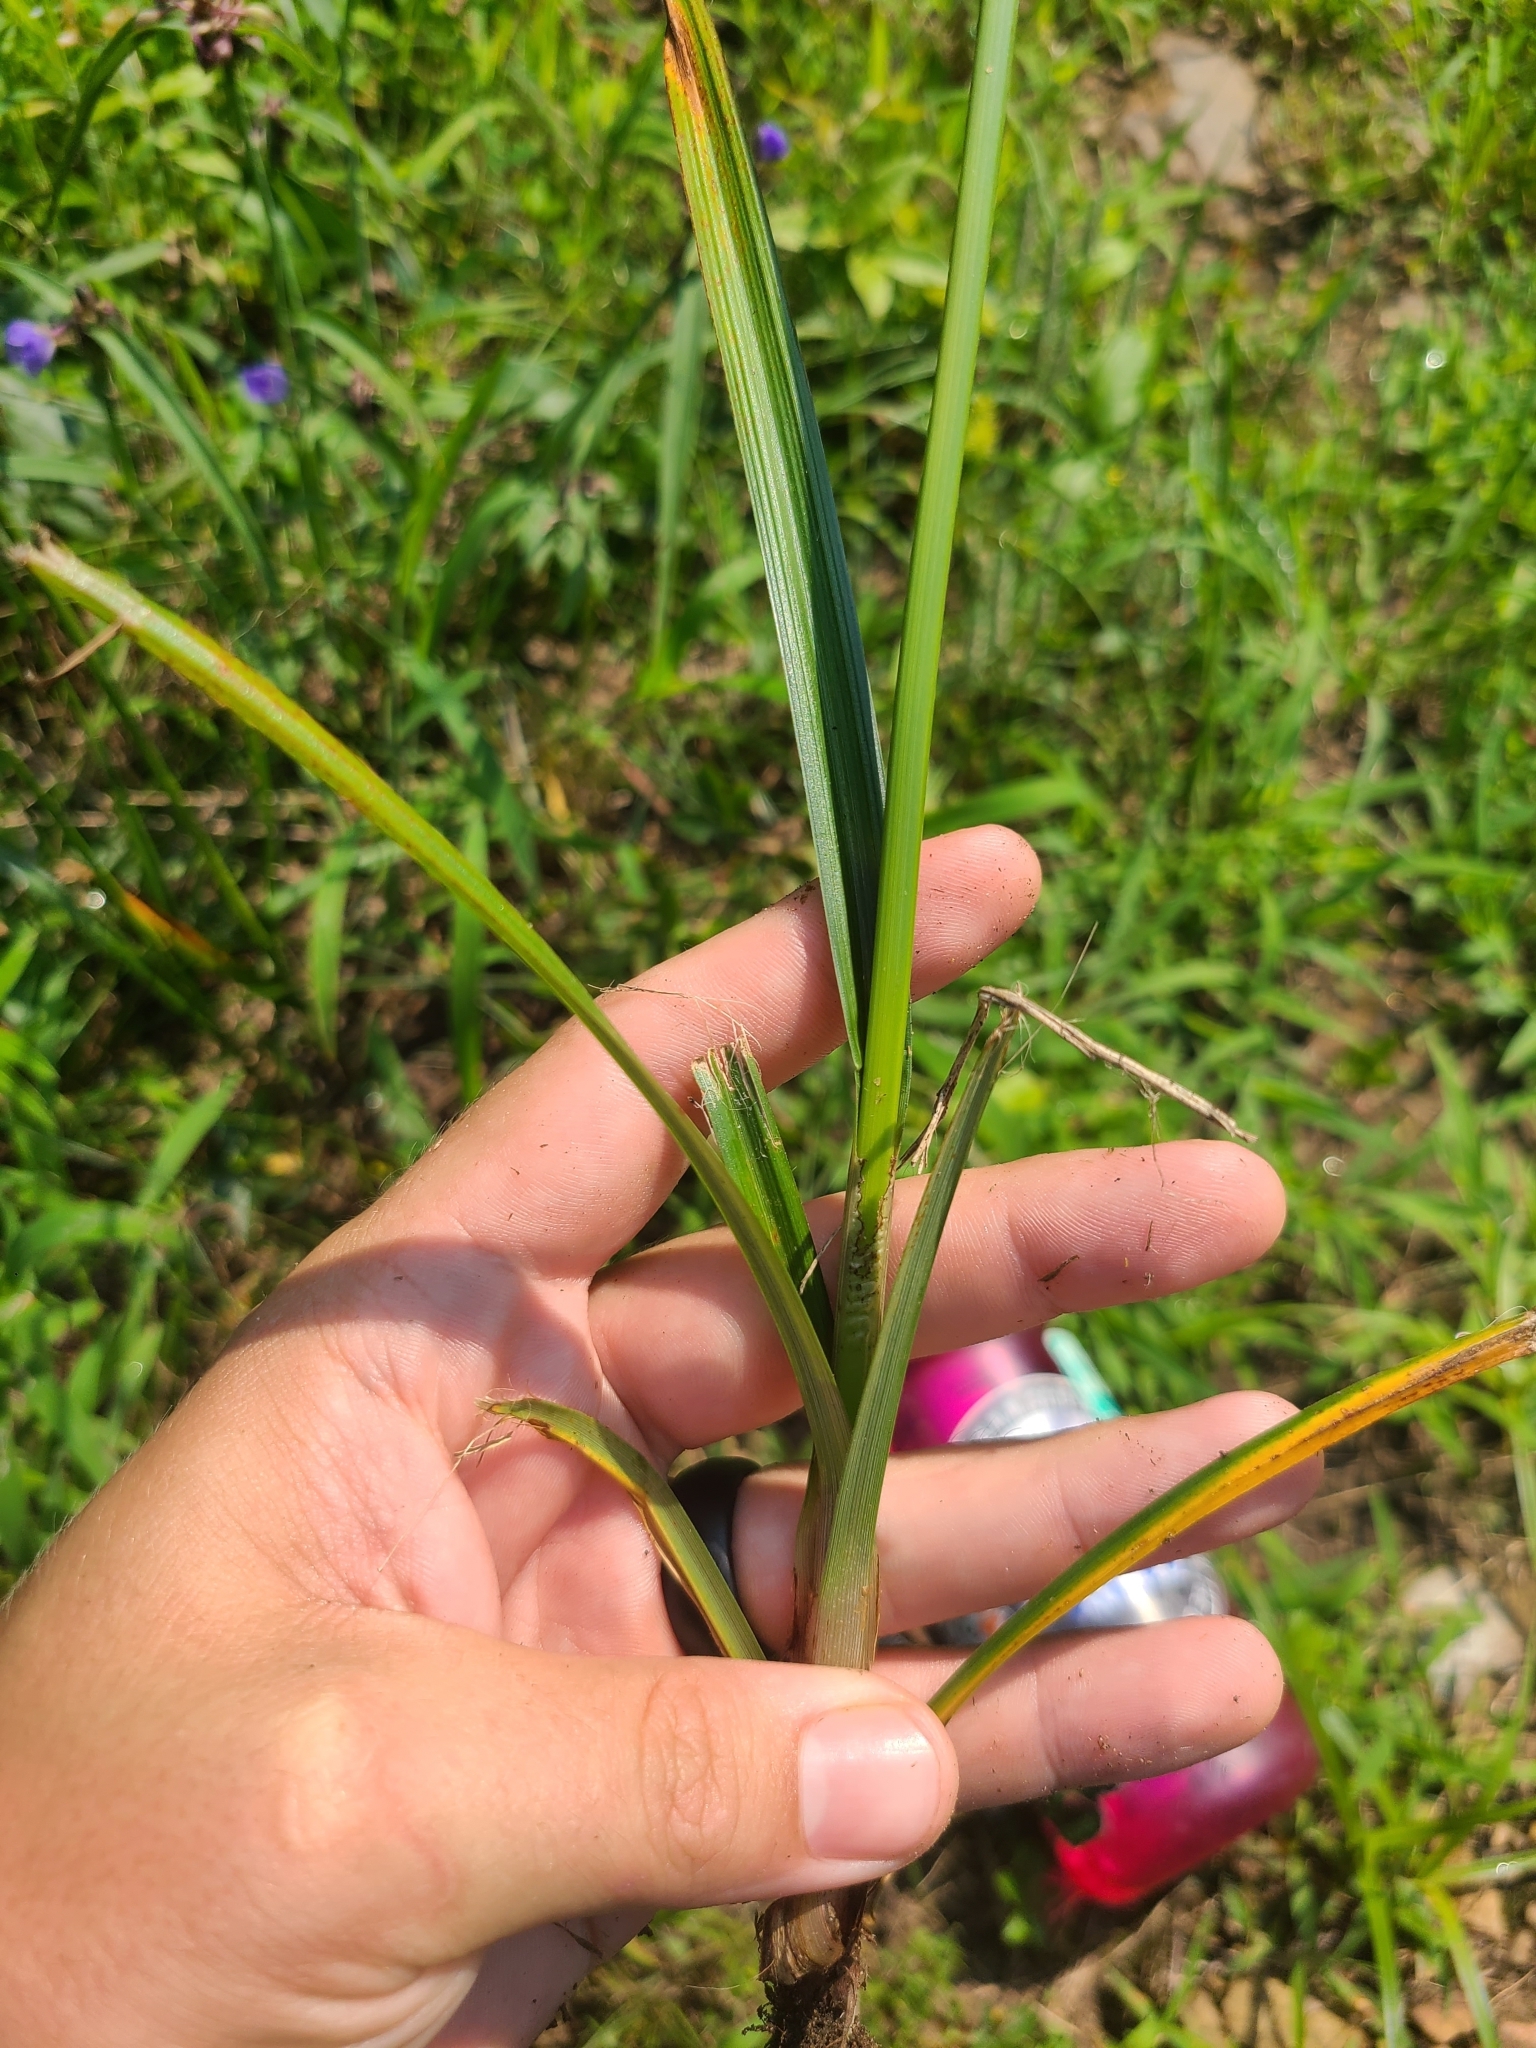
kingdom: Plantae
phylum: Tracheophyta
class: Liliopsida
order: Poales
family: Cyperaceae
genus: Cyperus
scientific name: Cyperus retrofractus
